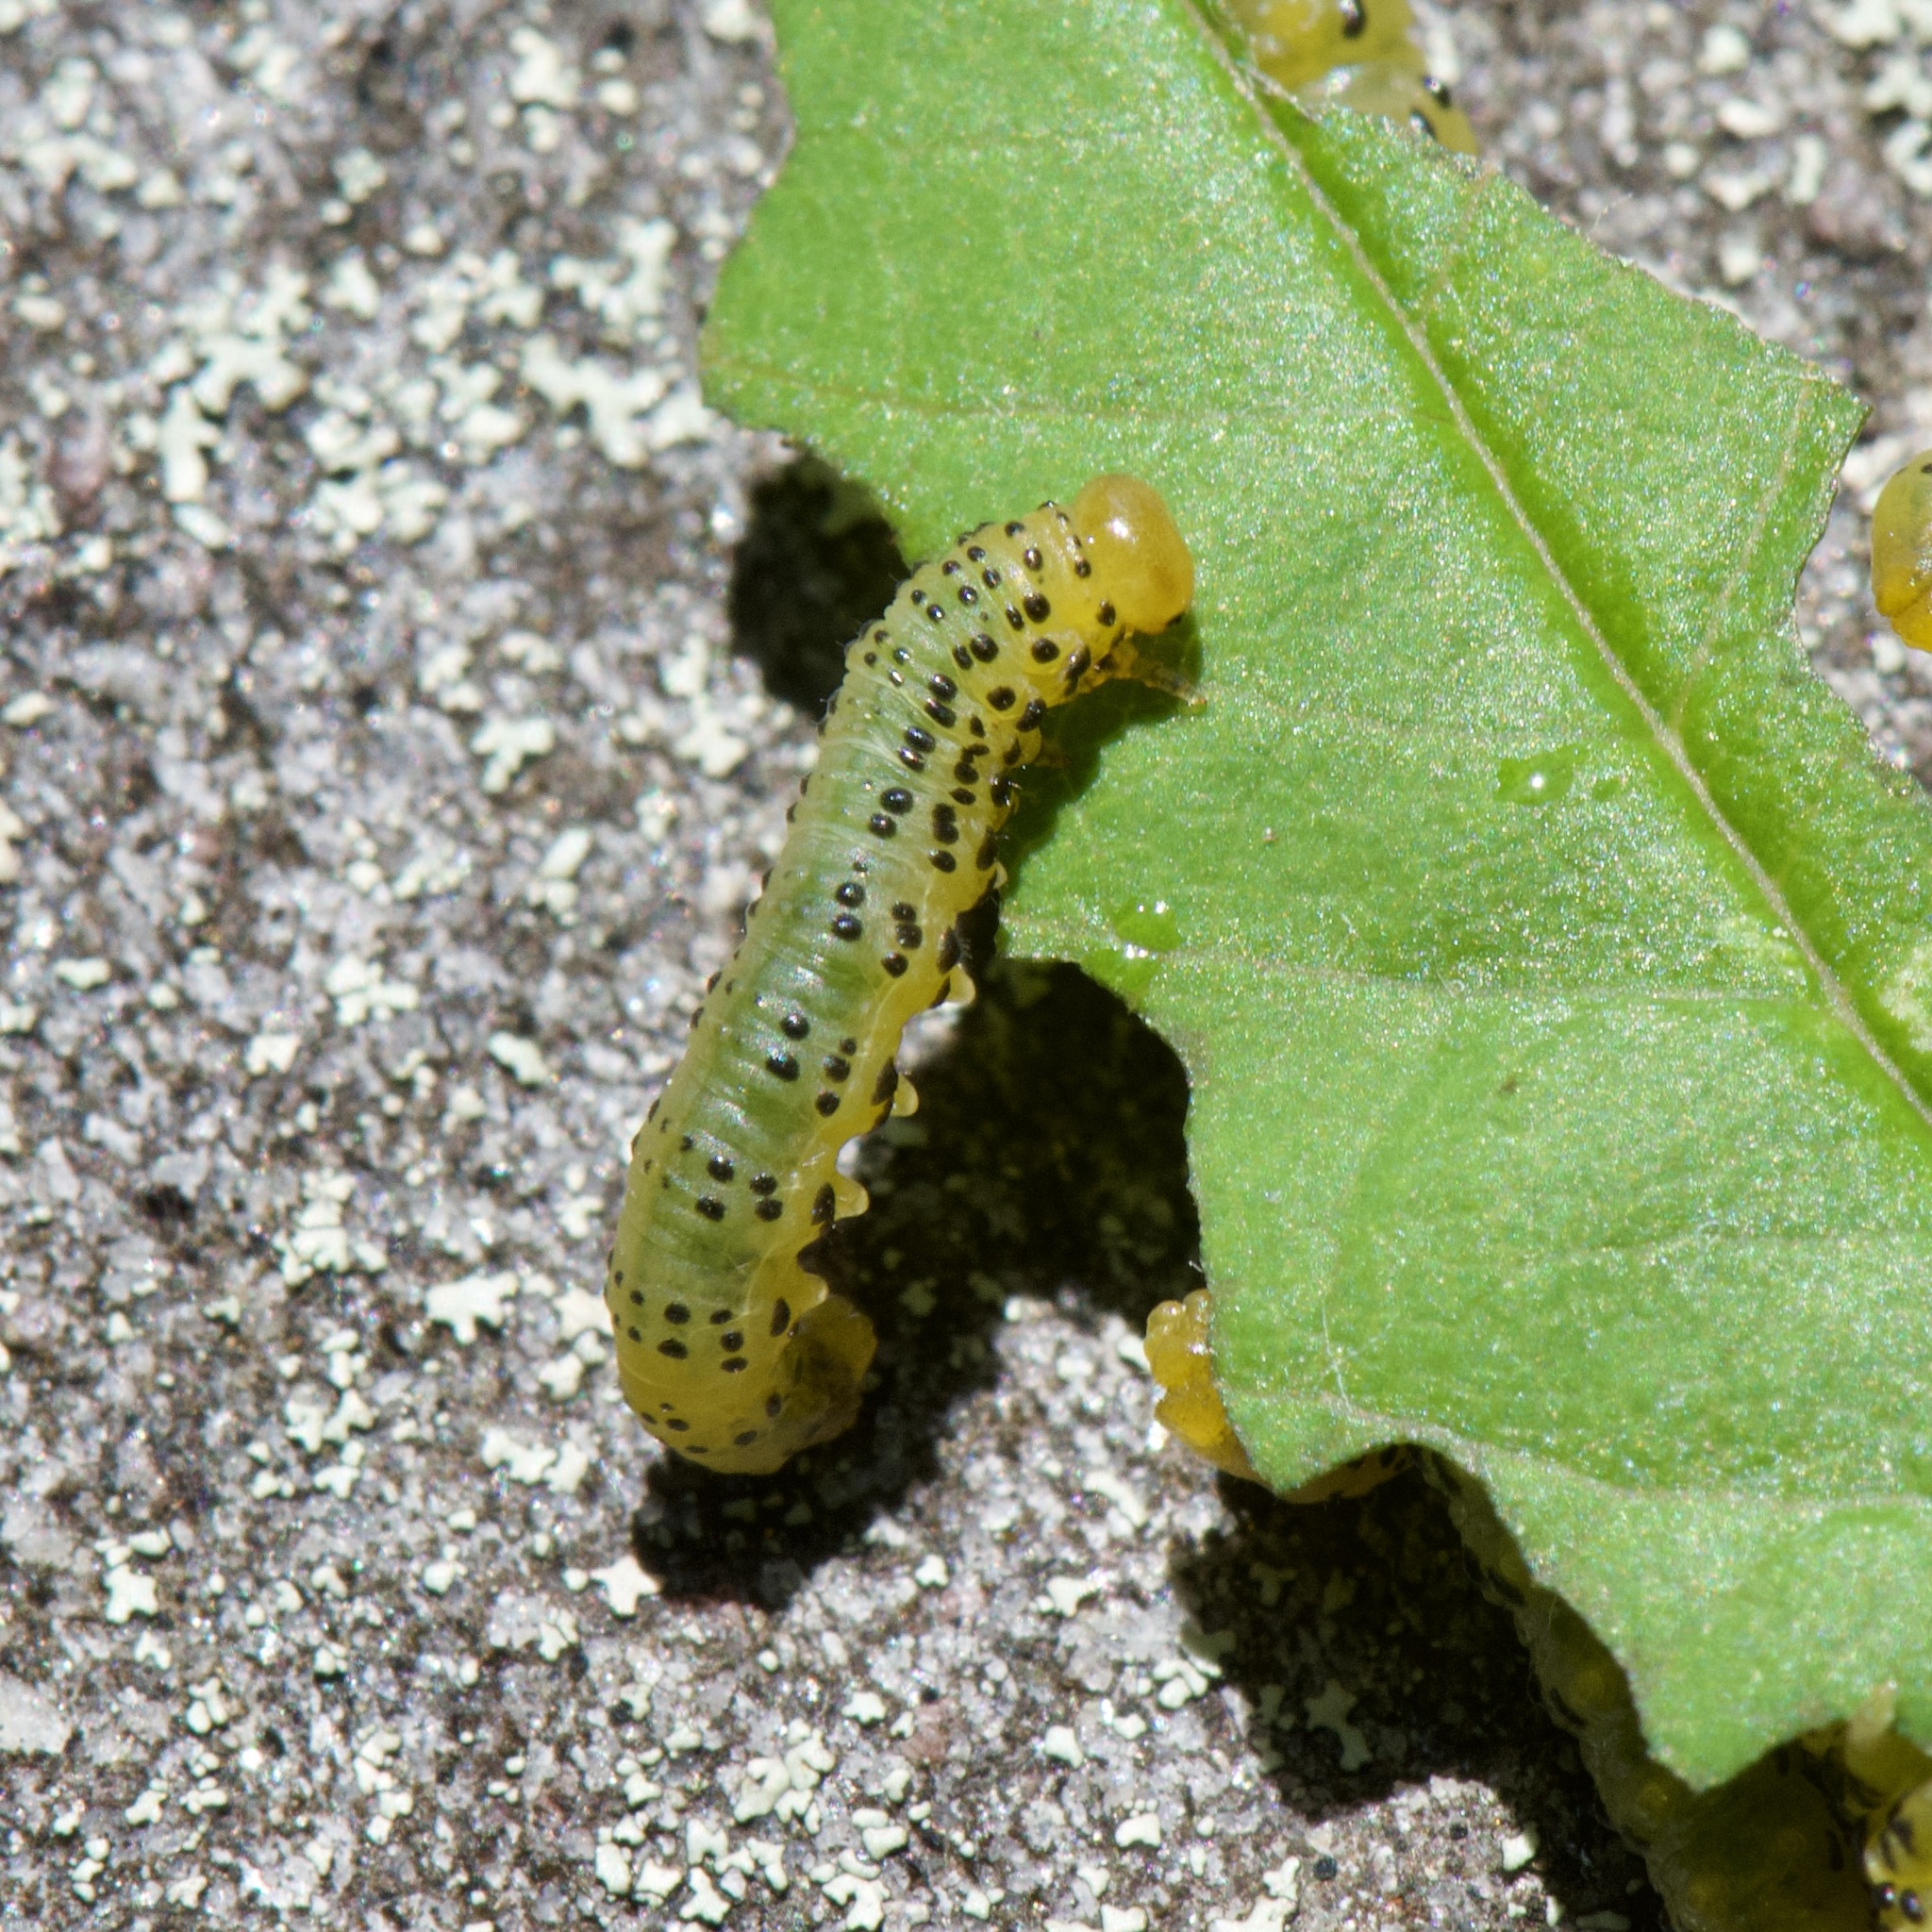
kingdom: Animalia
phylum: Arthropoda
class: Insecta
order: Hymenoptera
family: Tenthredinidae
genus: Pristiphora
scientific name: Pristiphora geniculata
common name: Mountain-ash sawfly
